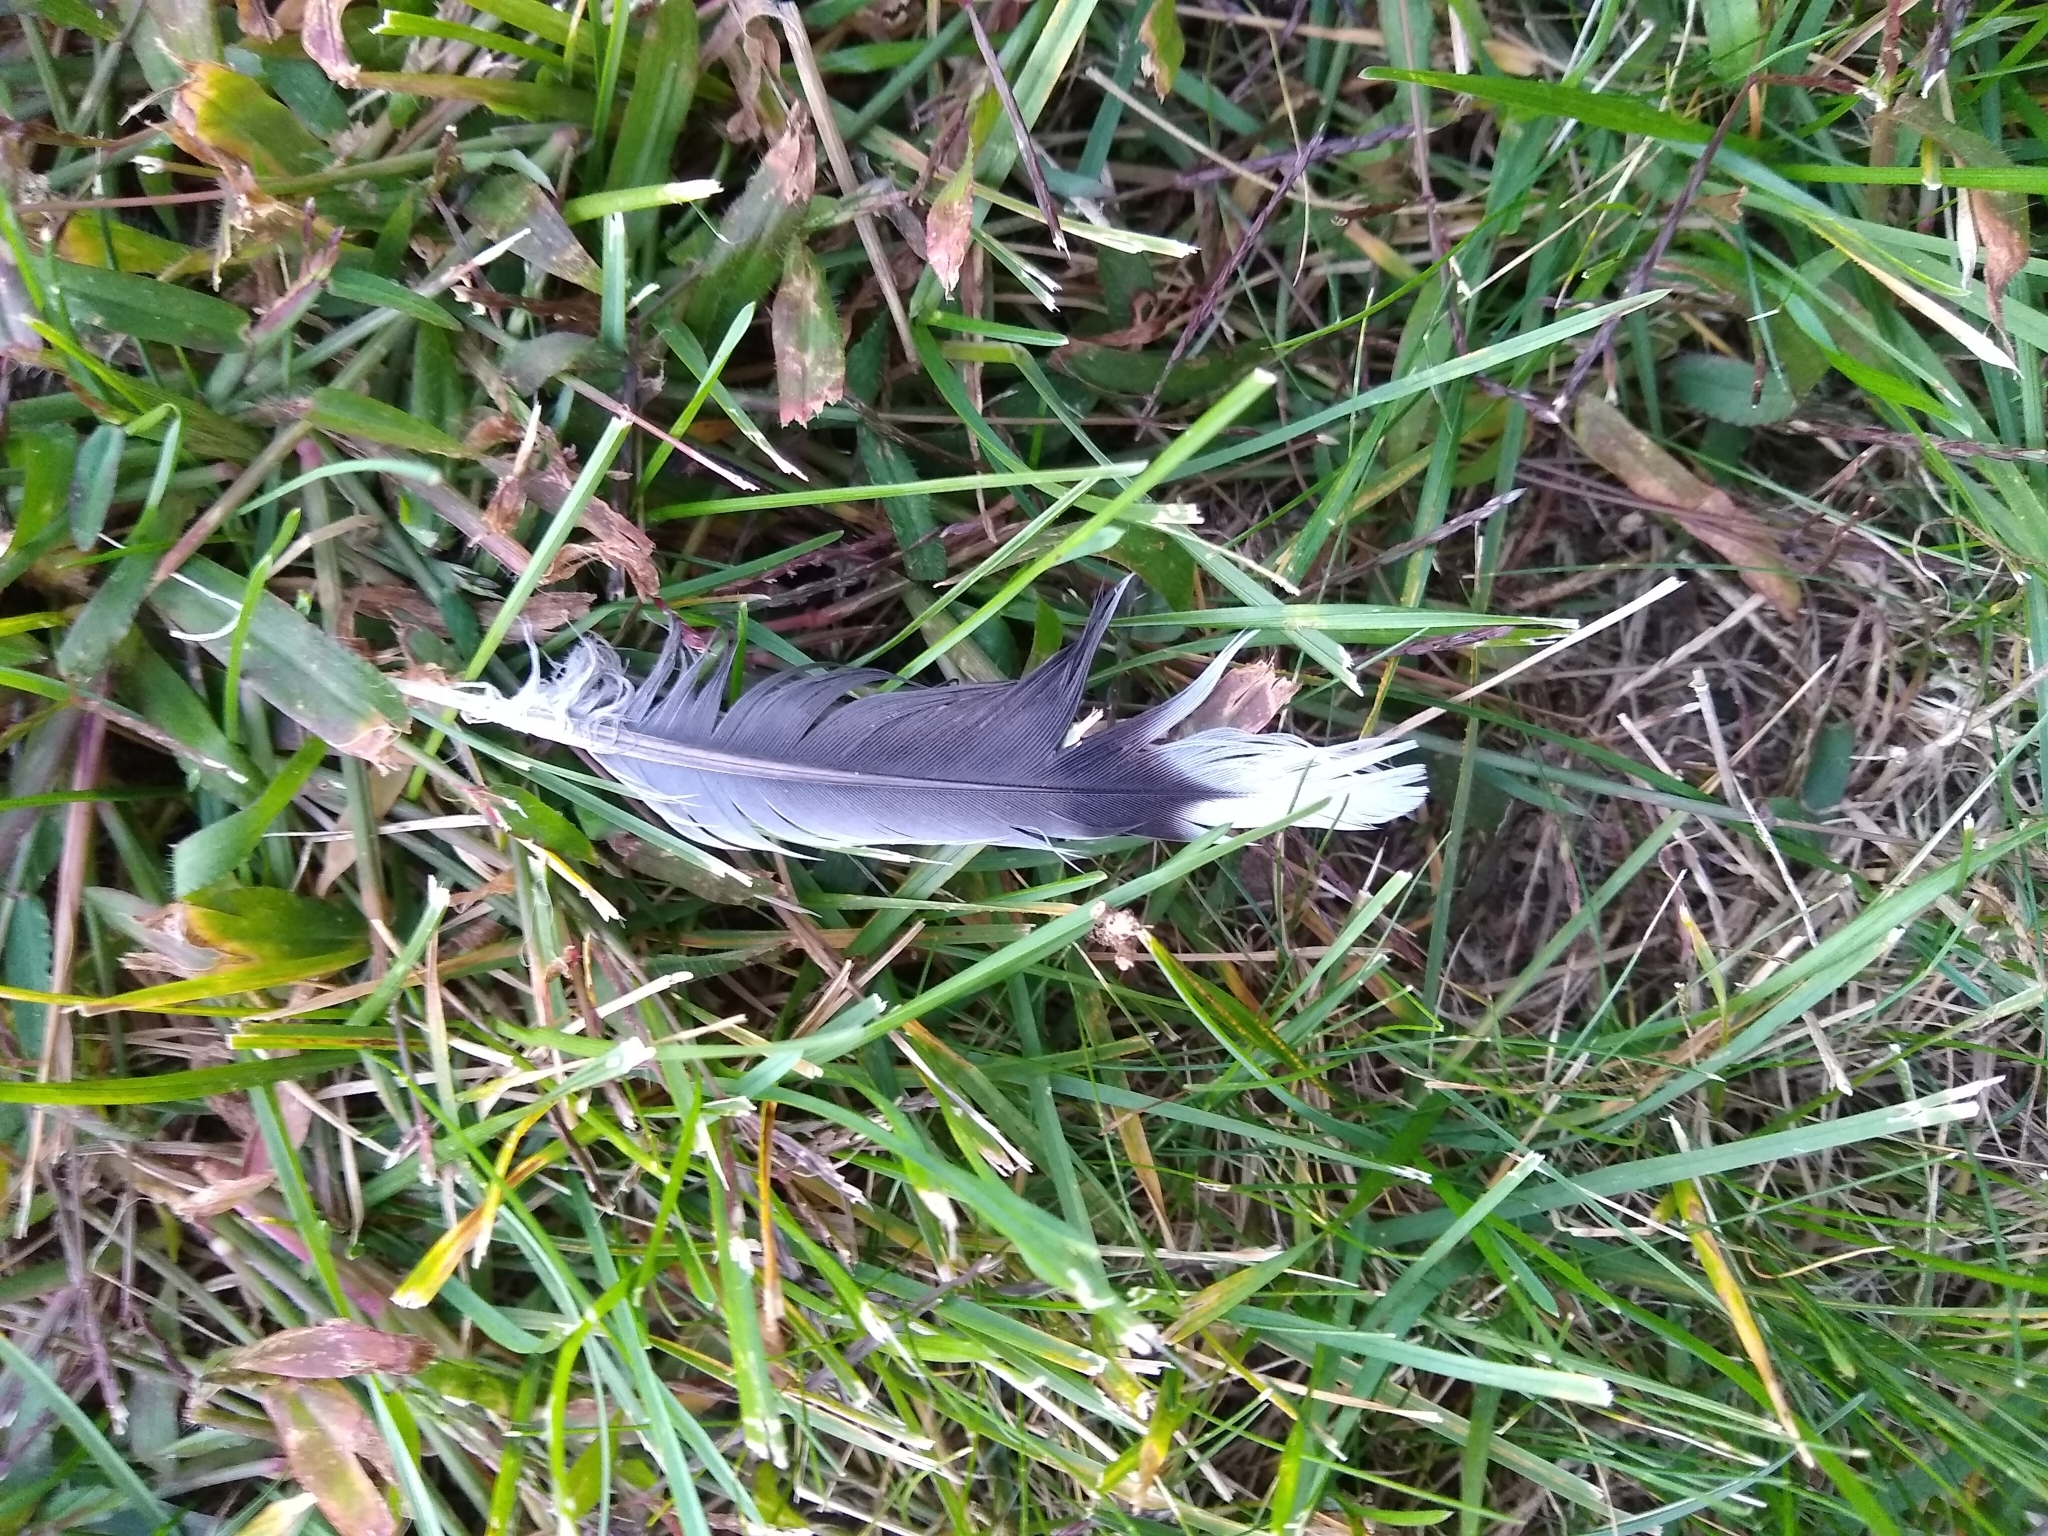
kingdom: Animalia
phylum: Chordata
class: Aves
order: Columbiformes
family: Columbidae
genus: Zenaida
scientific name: Zenaida macroura
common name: Mourning dove
